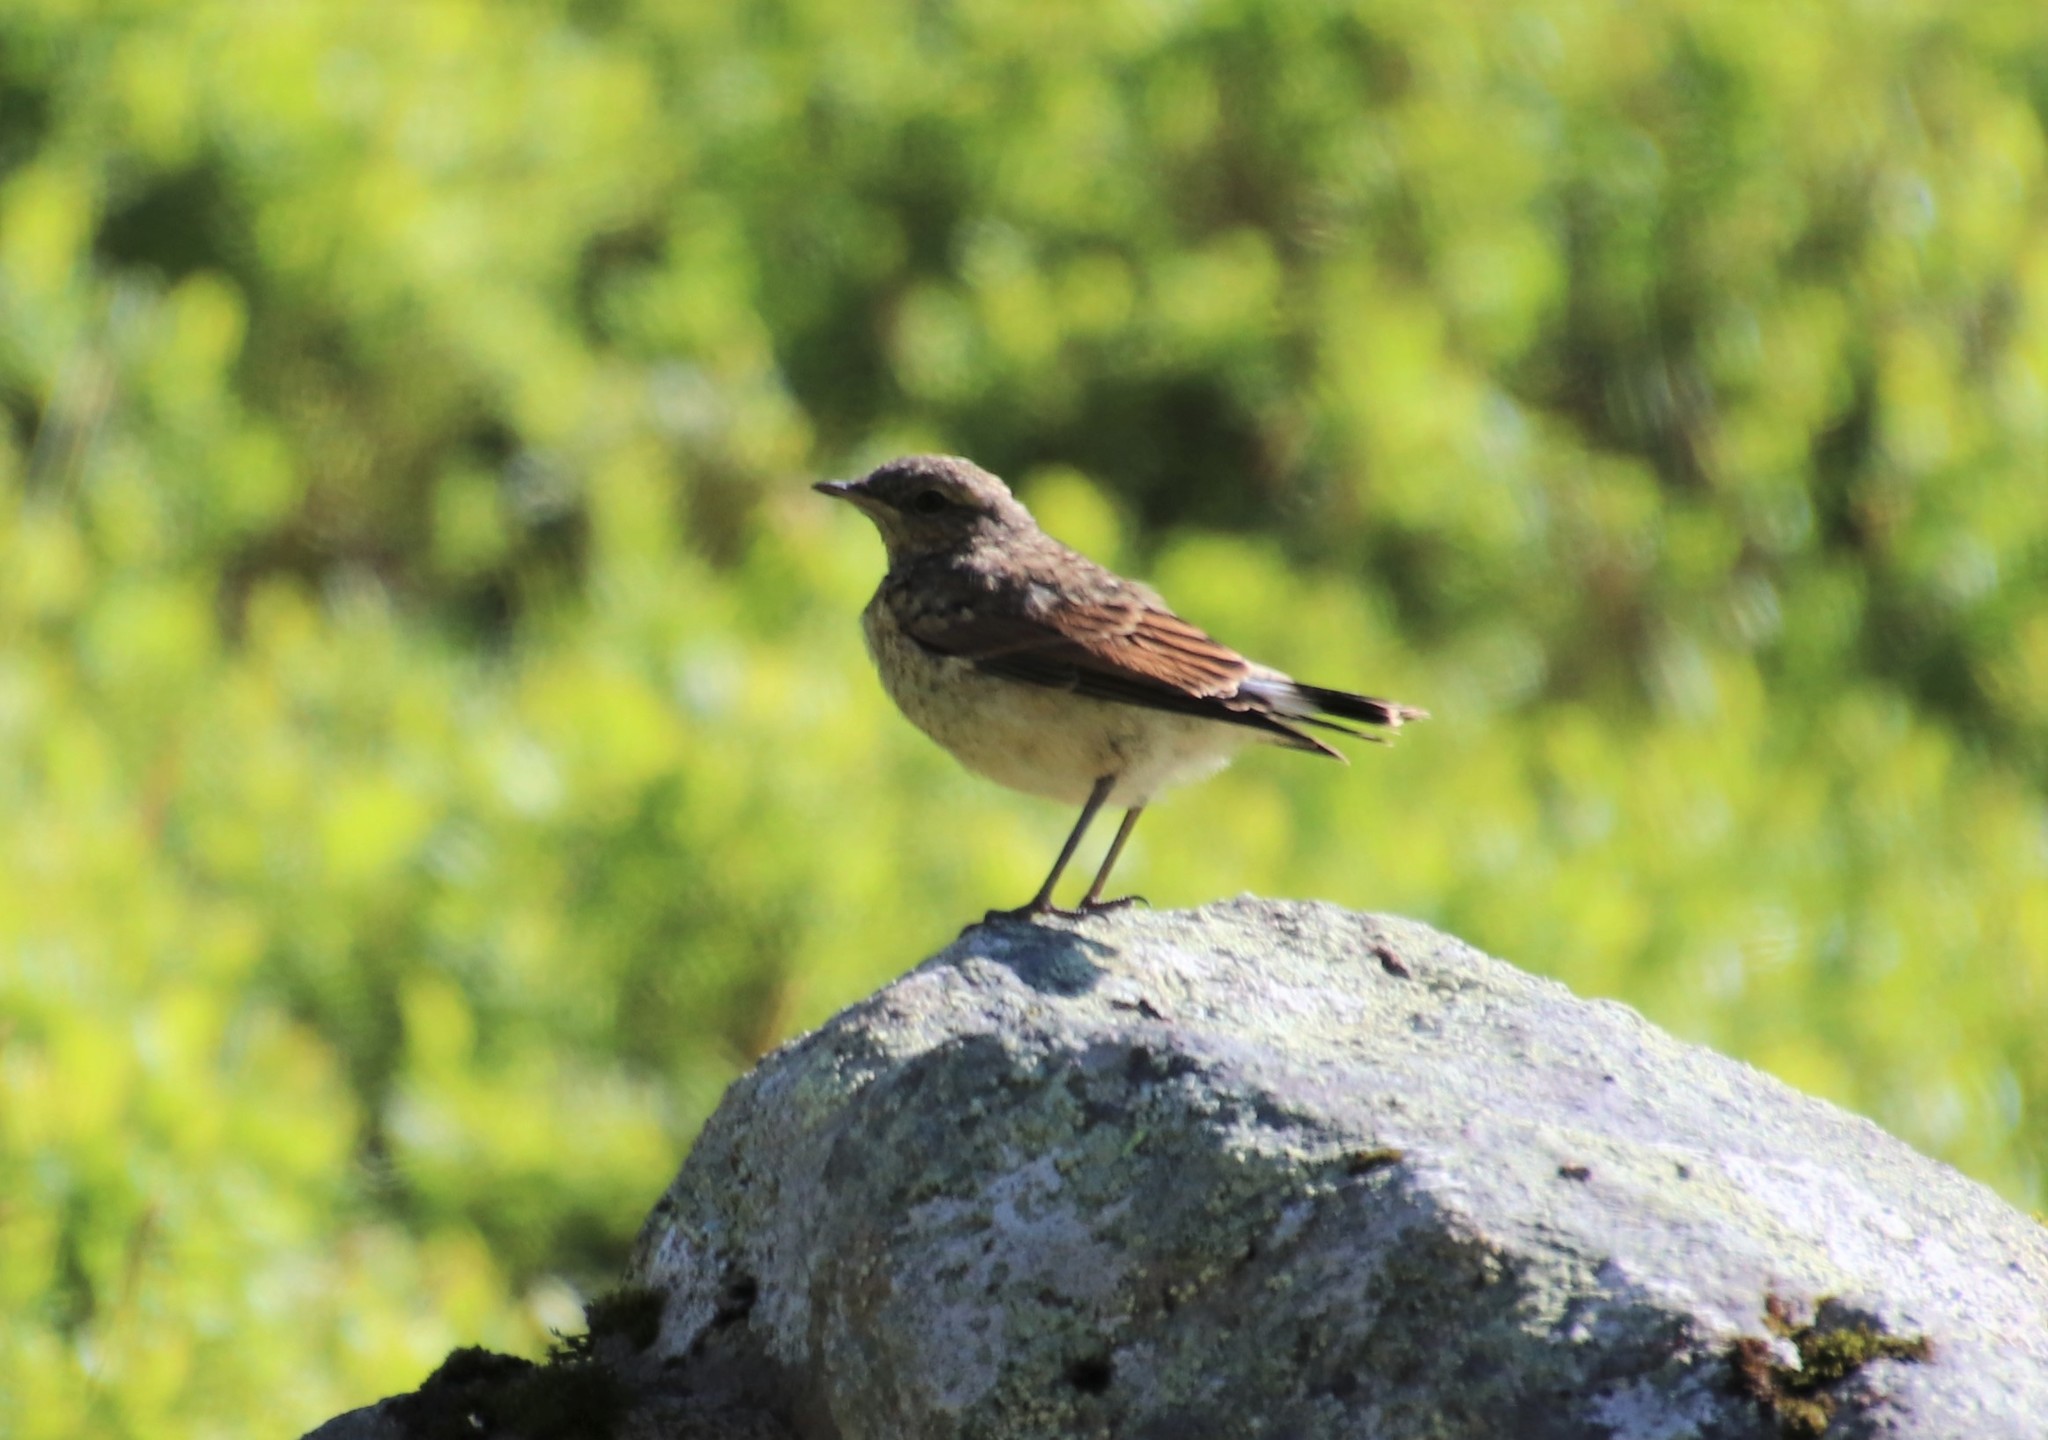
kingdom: Animalia
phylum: Chordata
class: Aves
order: Passeriformes
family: Muscicapidae
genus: Oenanthe
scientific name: Oenanthe oenanthe
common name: Northern wheatear
